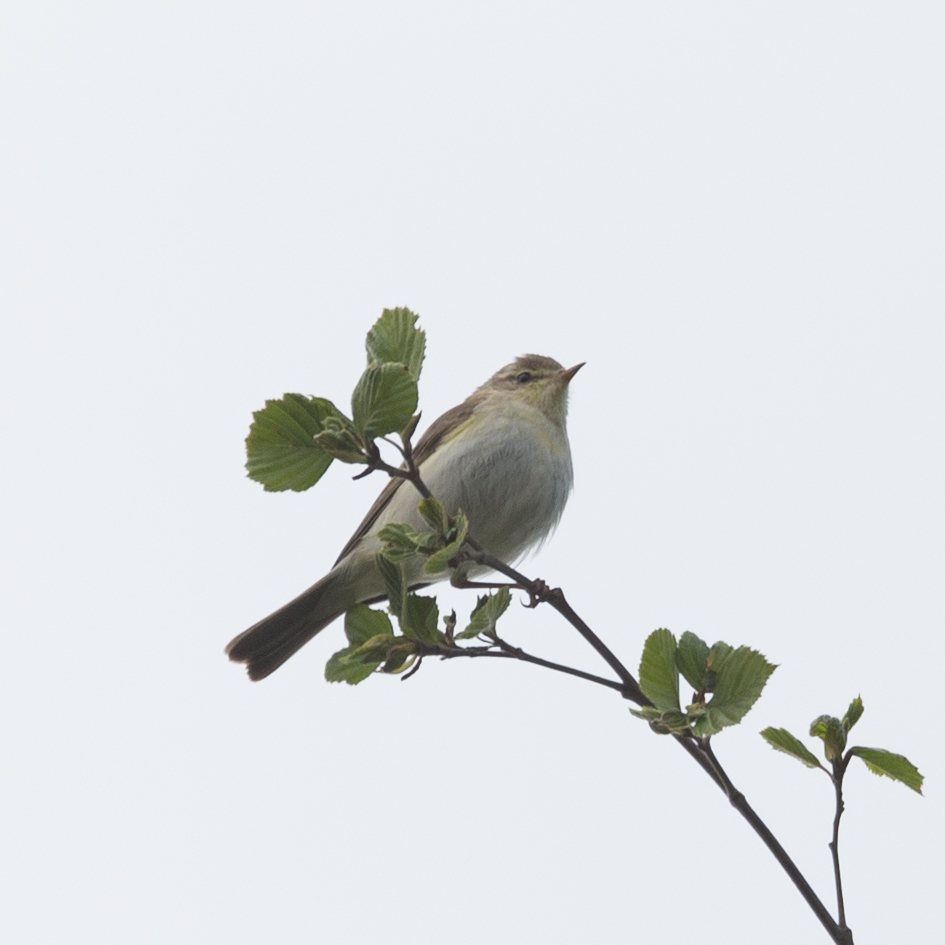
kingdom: Animalia
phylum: Chordata
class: Aves
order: Passeriformes
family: Phylloscopidae
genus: Phylloscopus
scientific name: Phylloscopus trochilus
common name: Willow warbler
